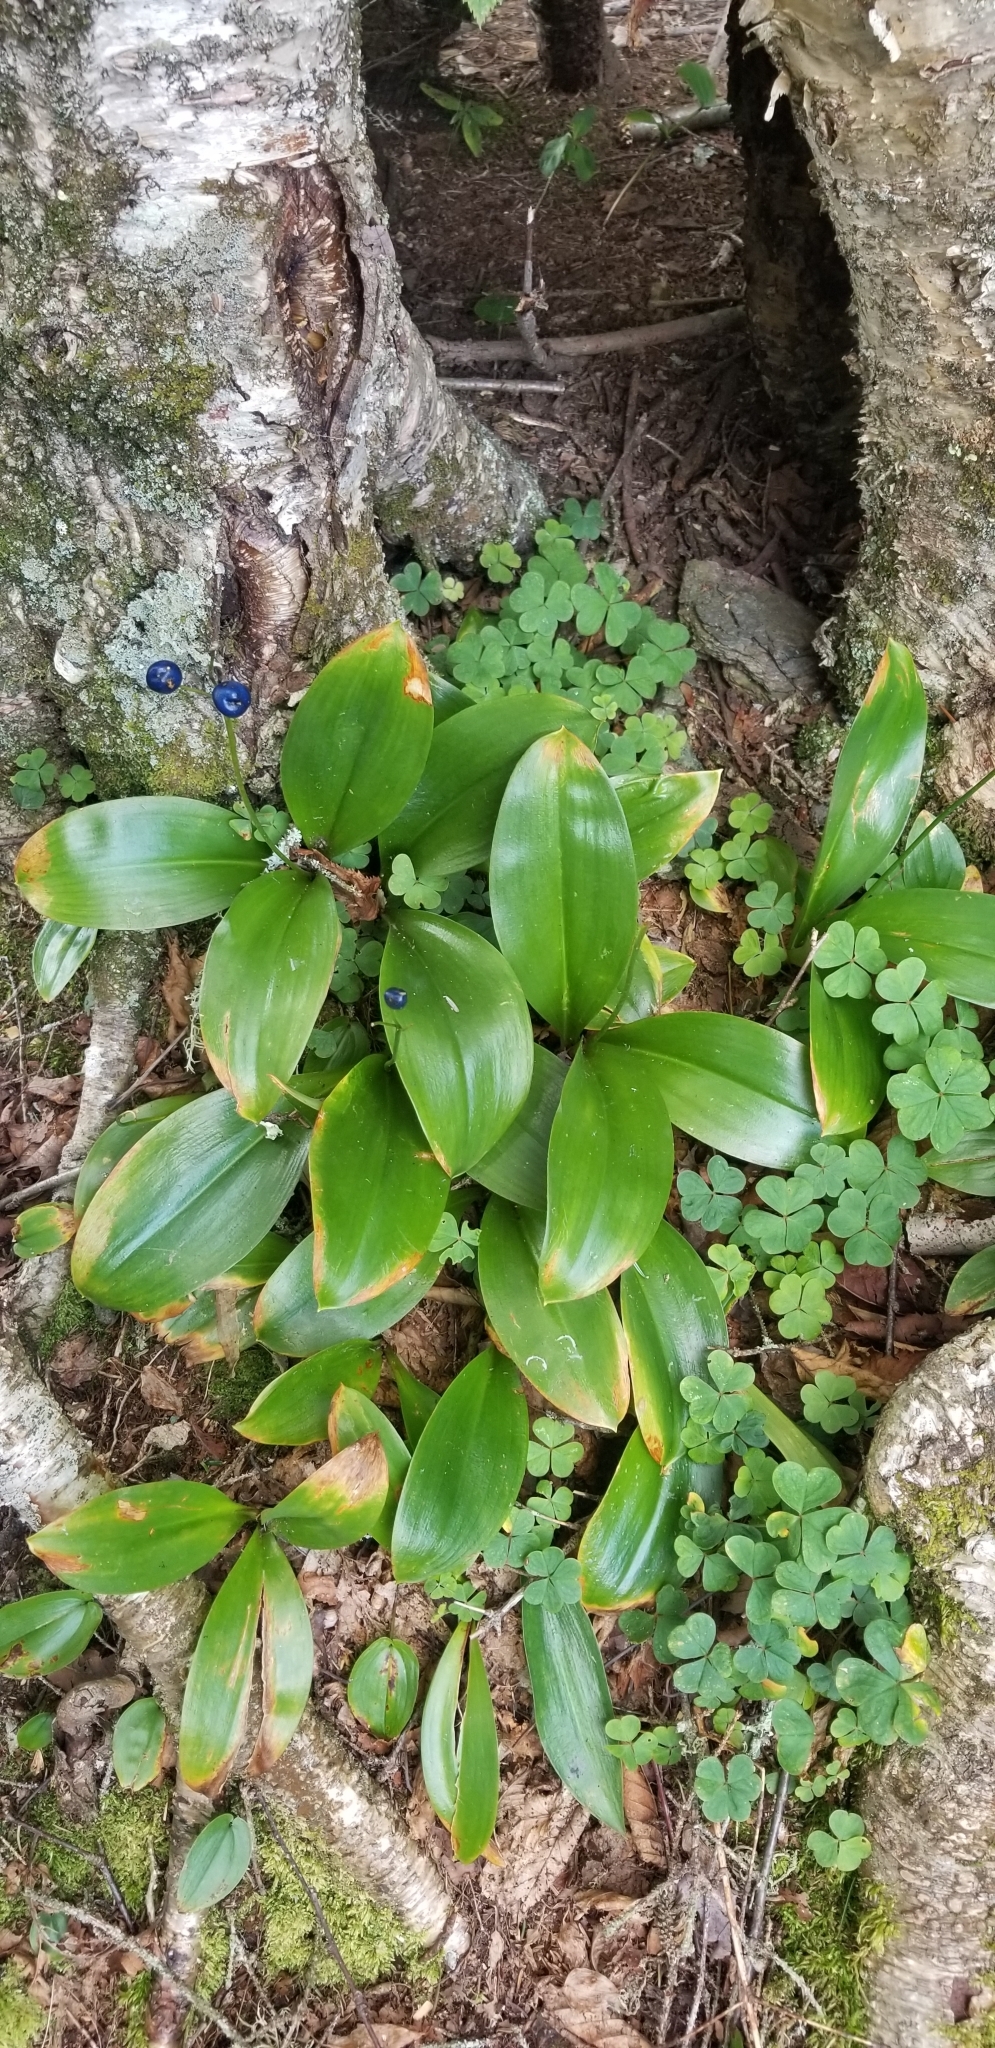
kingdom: Plantae
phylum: Tracheophyta
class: Liliopsida
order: Liliales
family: Liliaceae
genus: Clintonia
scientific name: Clintonia borealis
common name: Yellow clintonia
